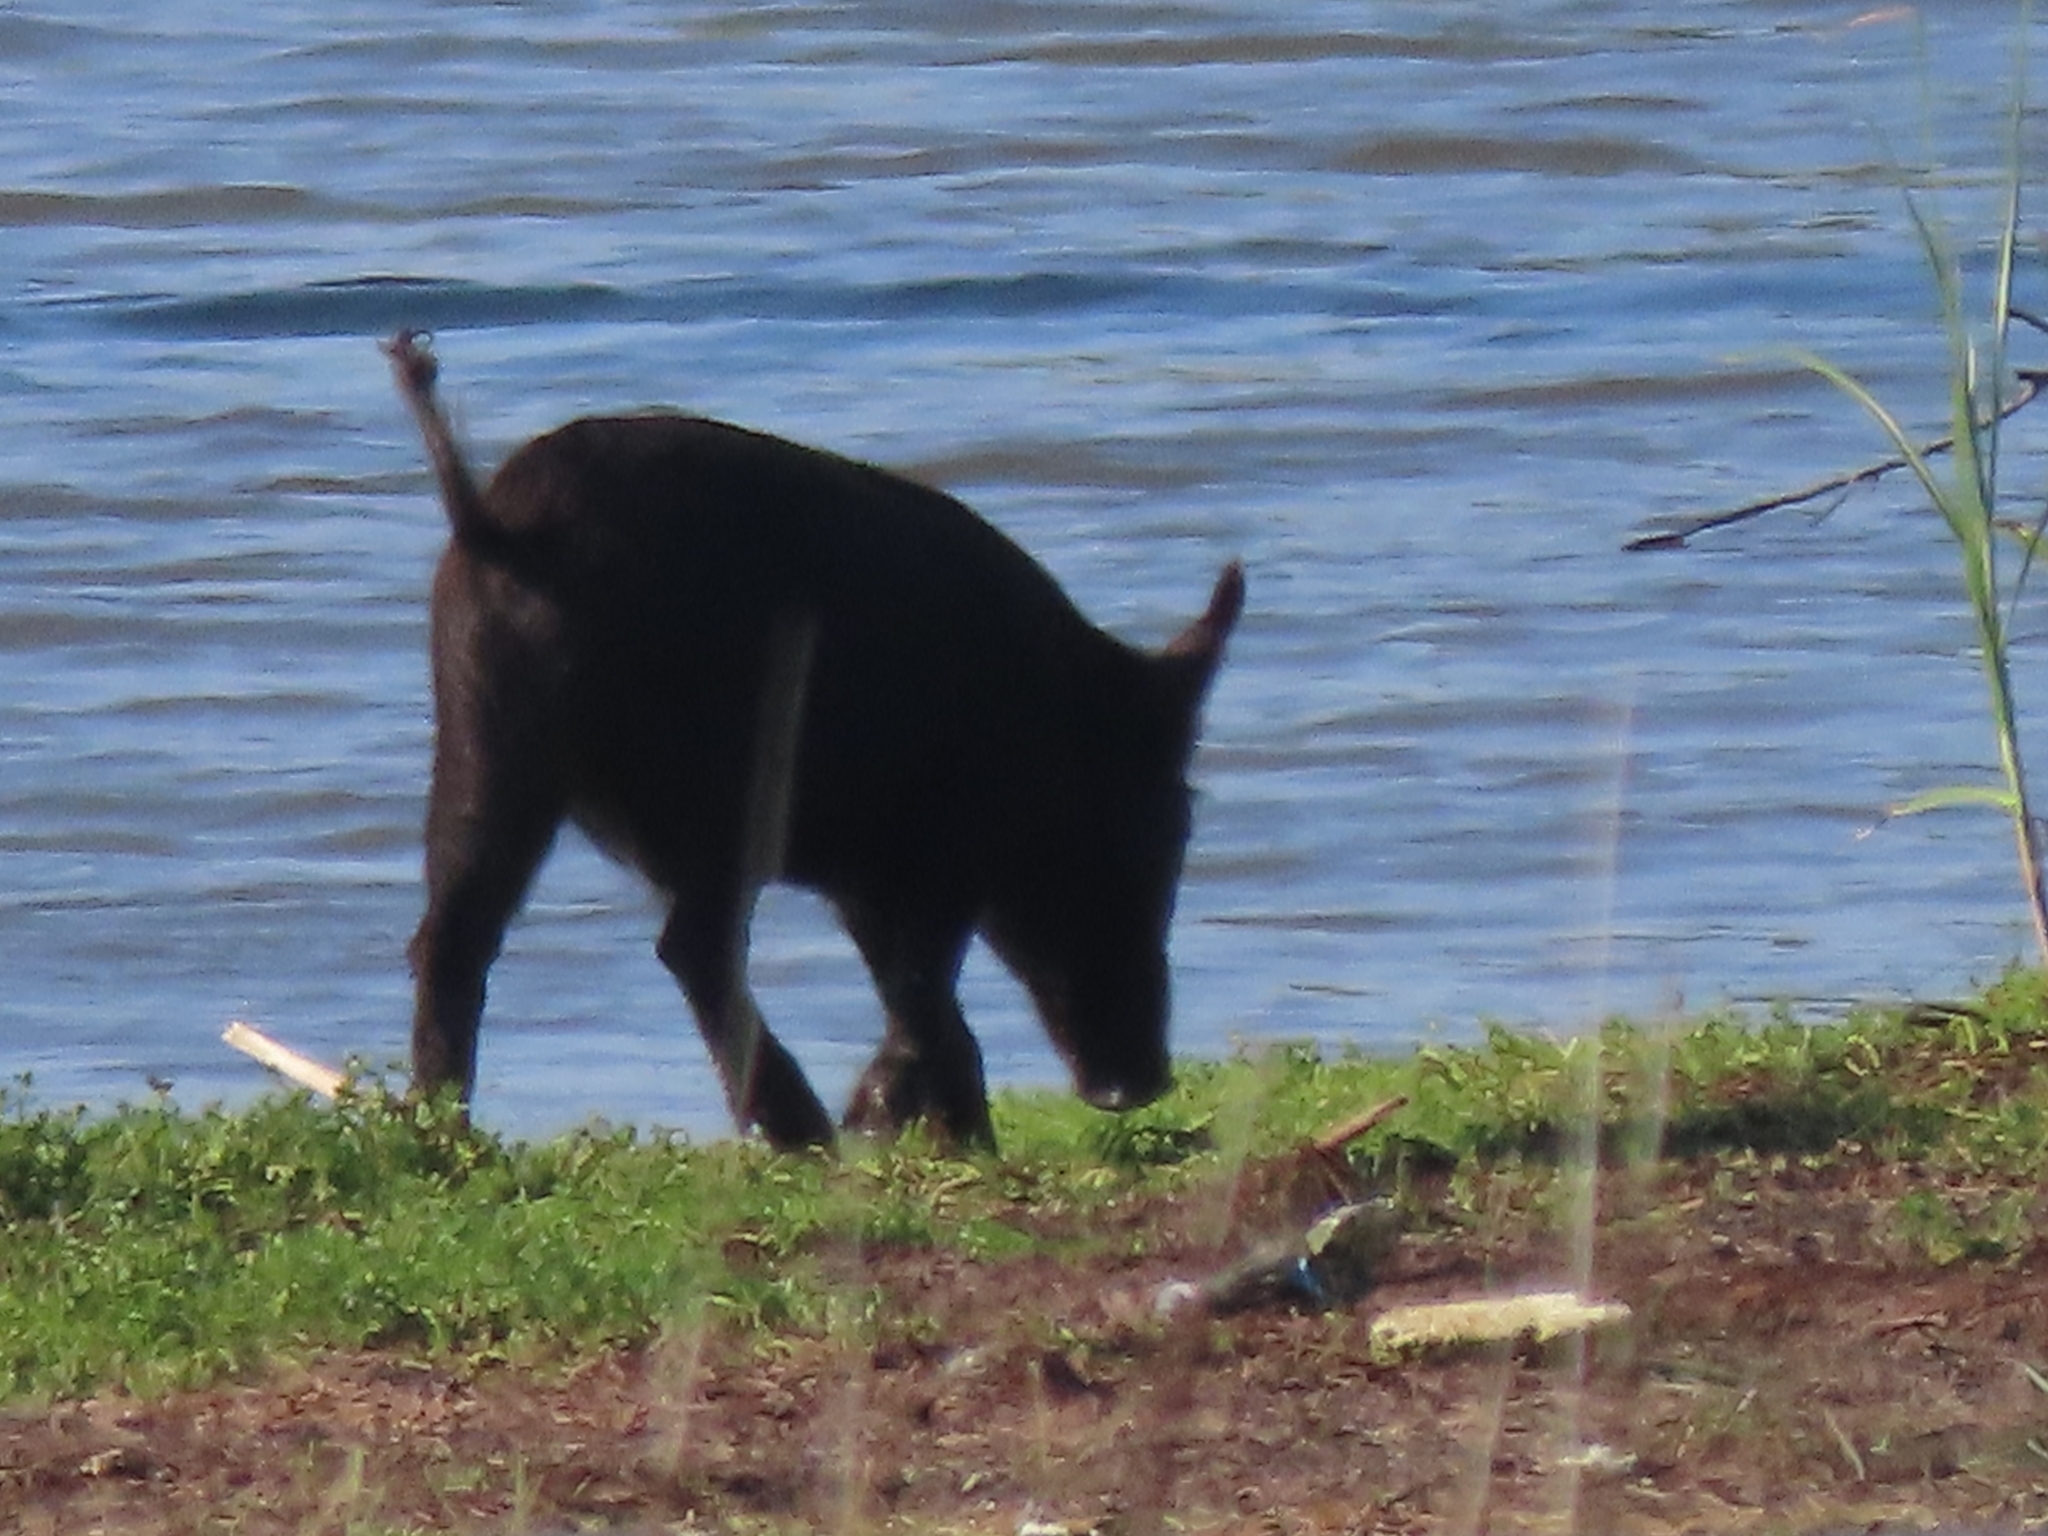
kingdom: Animalia
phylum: Chordata
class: Mammalia
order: Artiodactyla
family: Suidae
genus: Sus
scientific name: Sus scrofa
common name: Wild boar
